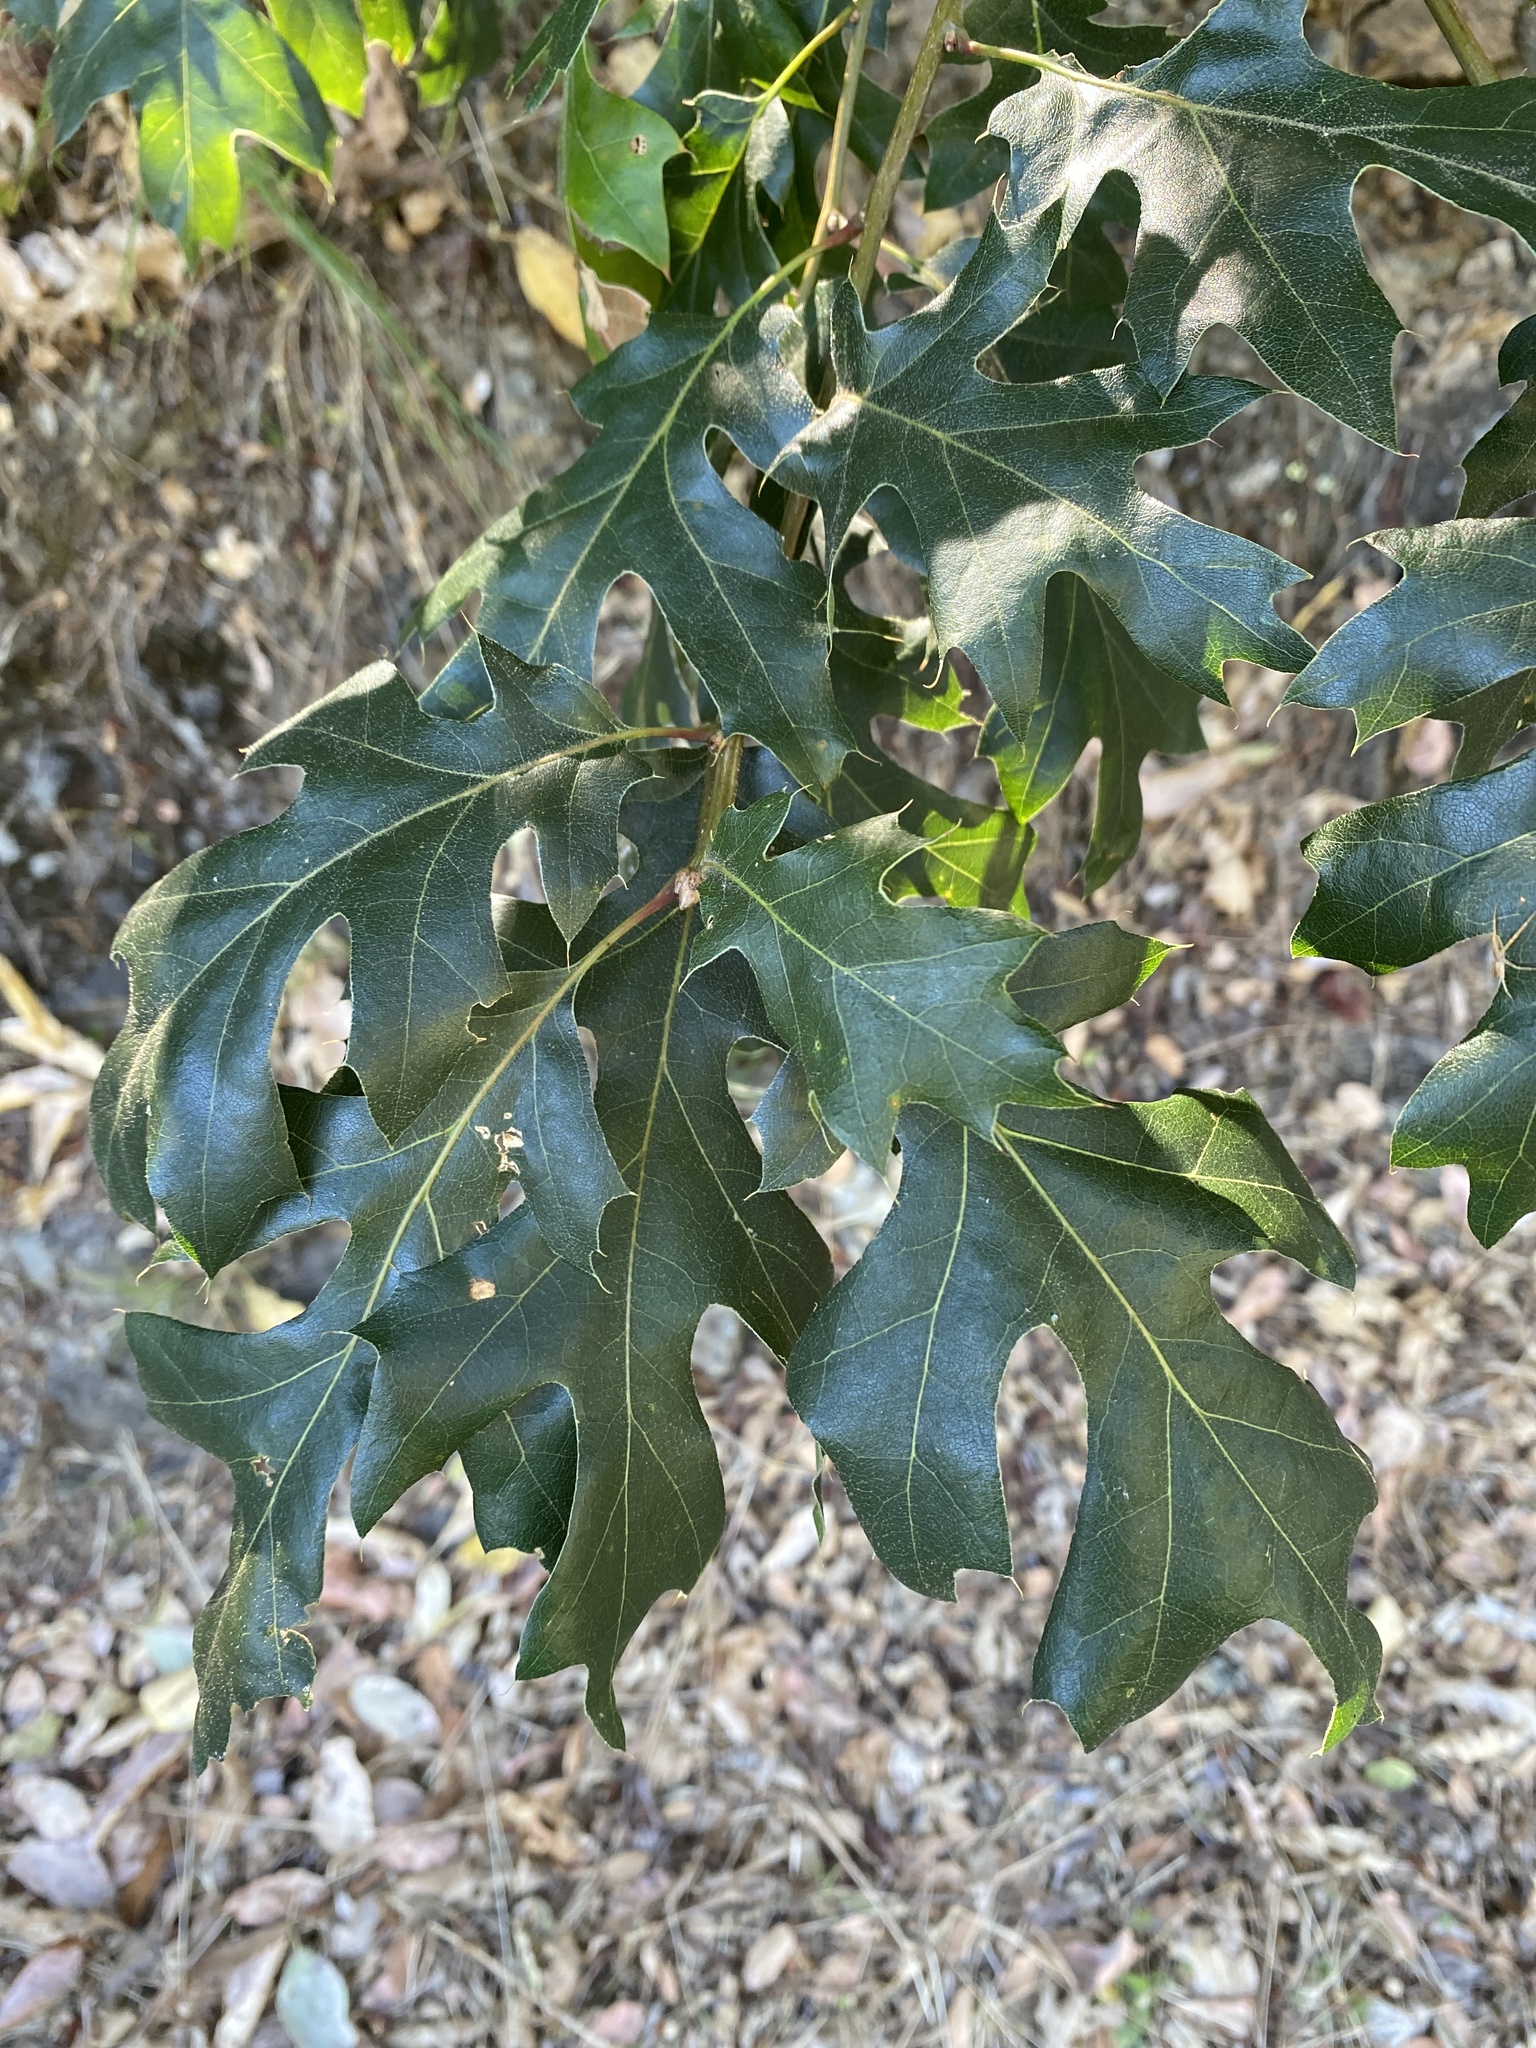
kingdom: Plantae
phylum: Tracheophyta
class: Magnoliopsida
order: Fagales
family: Fagaceae
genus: Quercus
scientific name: Quercus kelloggii
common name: California black oak
